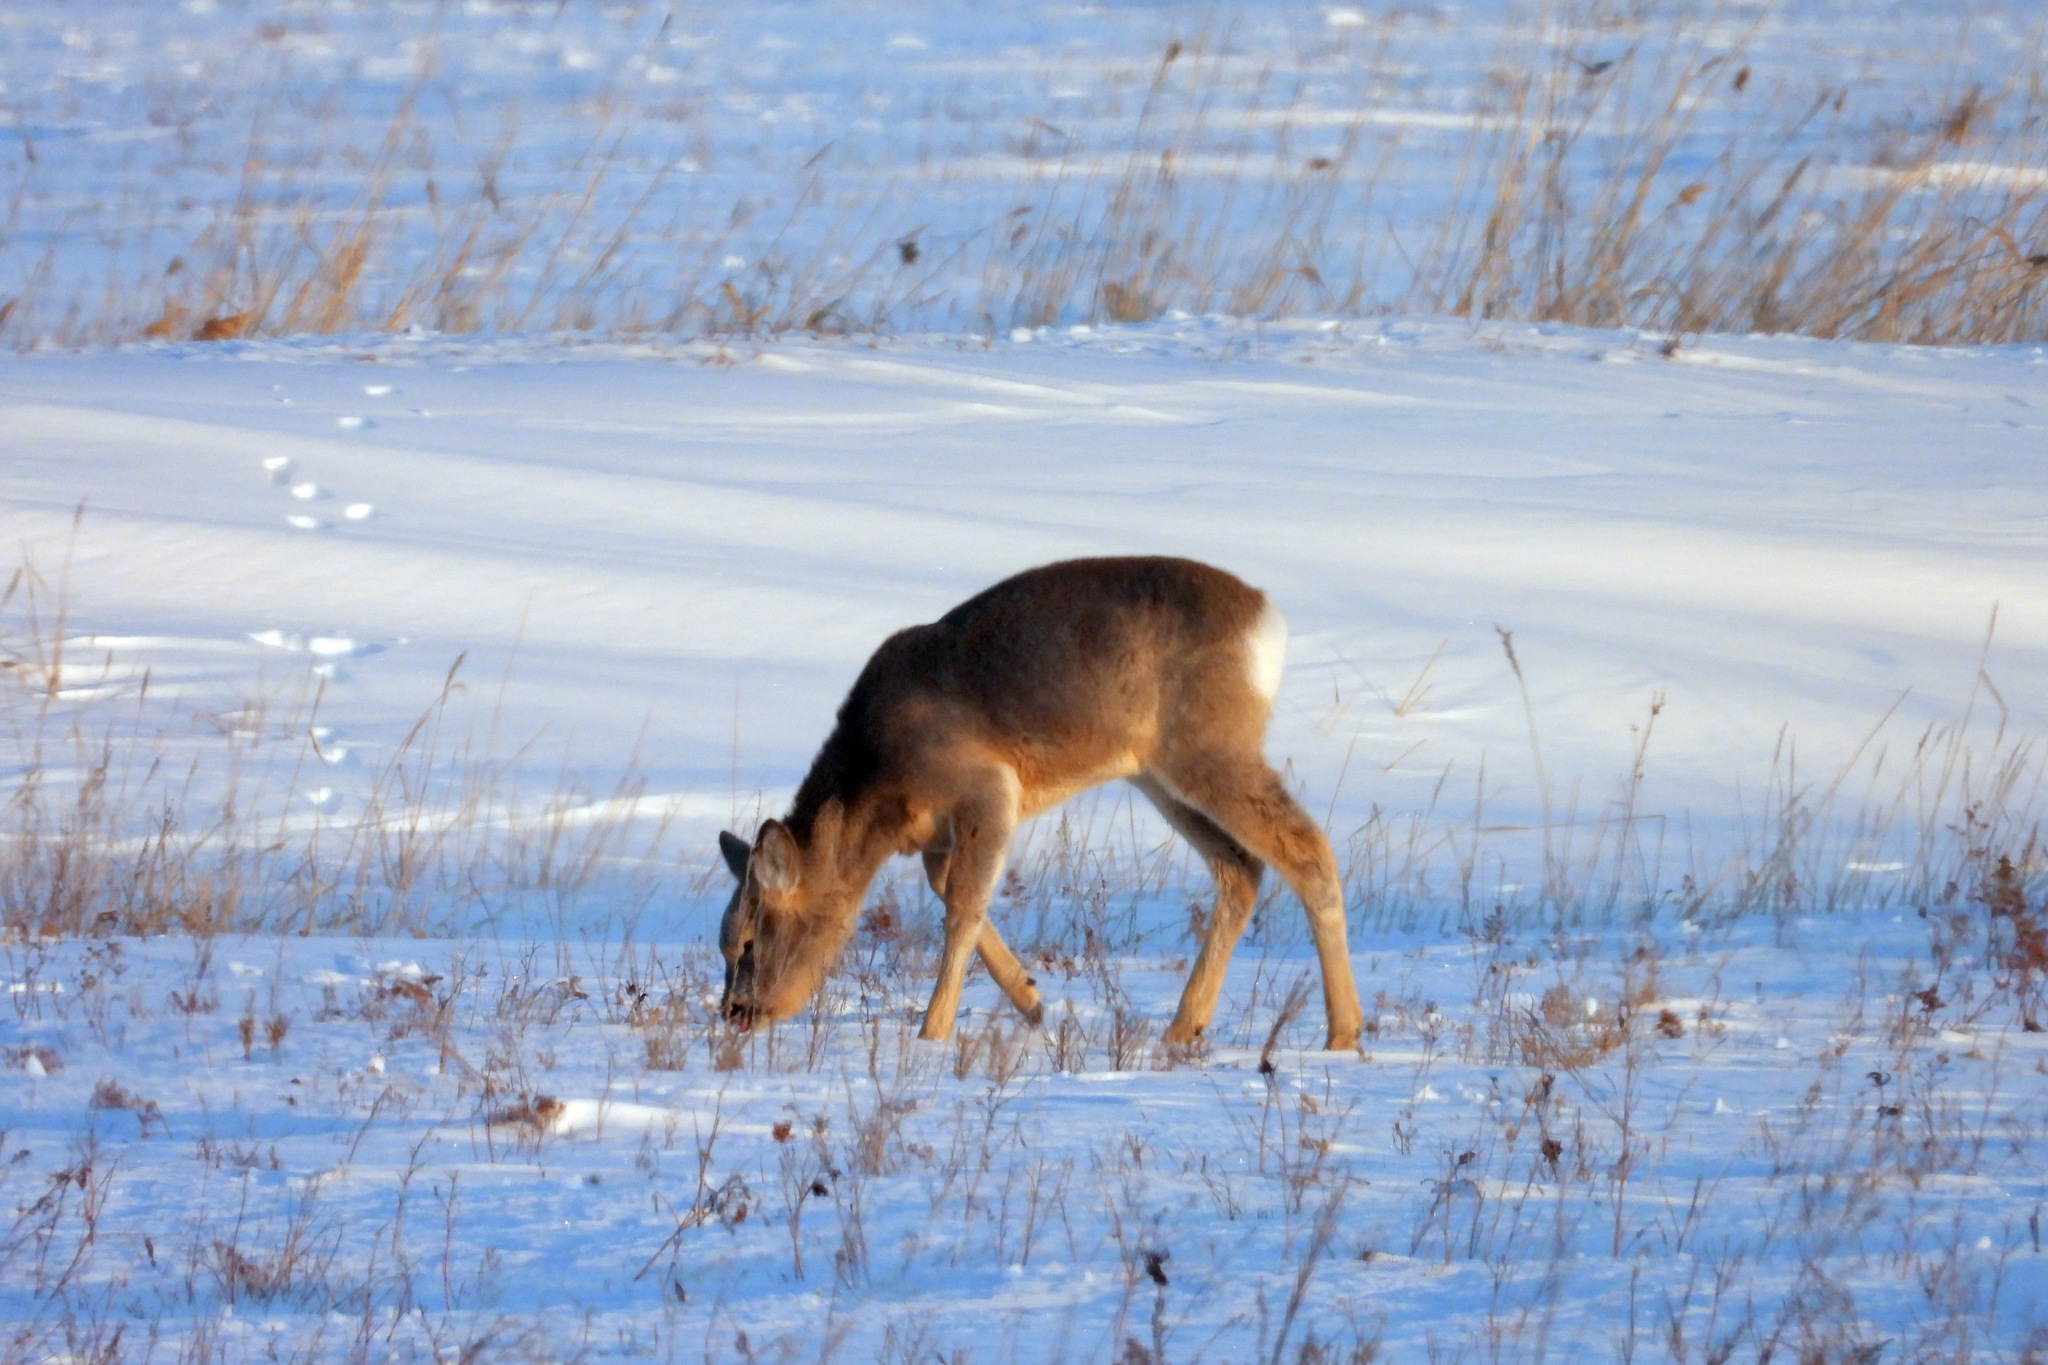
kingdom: Animalia
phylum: Chordata
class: Mammalia
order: Artiodactyla
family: Cervidae
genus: Capreolus
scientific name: Capreolus pygargus
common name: Siberian roe
